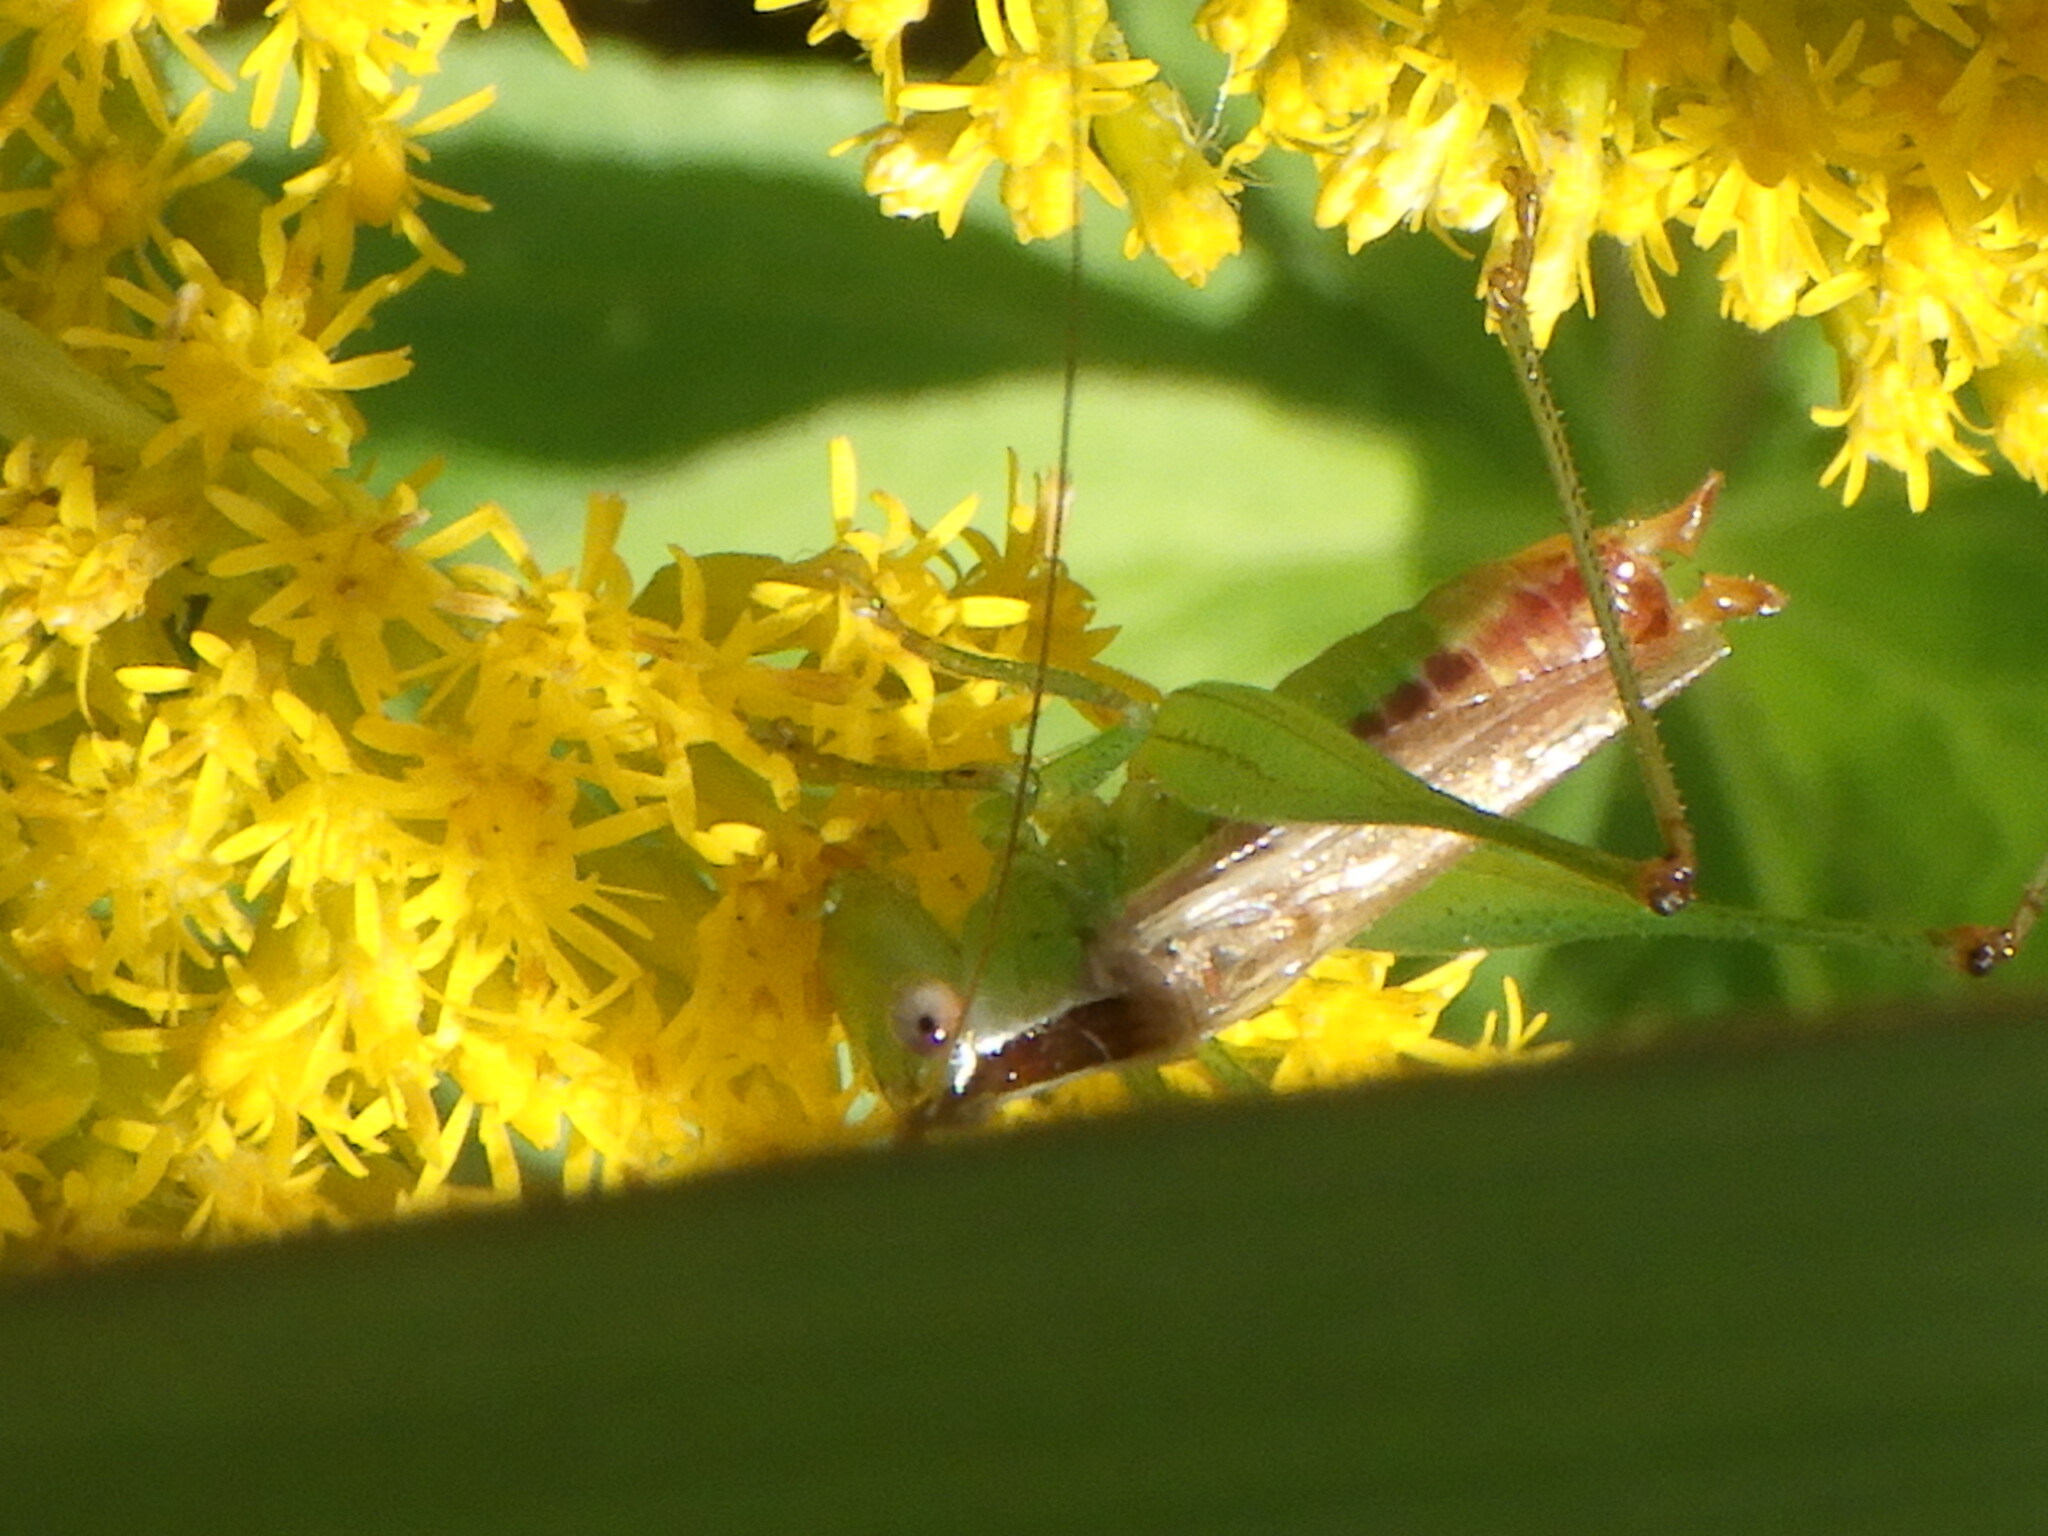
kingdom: Animalia
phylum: Arthropoda
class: Insecta
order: Orthoptera
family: Tettigoniidae
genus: Conocephalus
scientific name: Conocephalus brevipennis
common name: Short-winged meadow katydid
